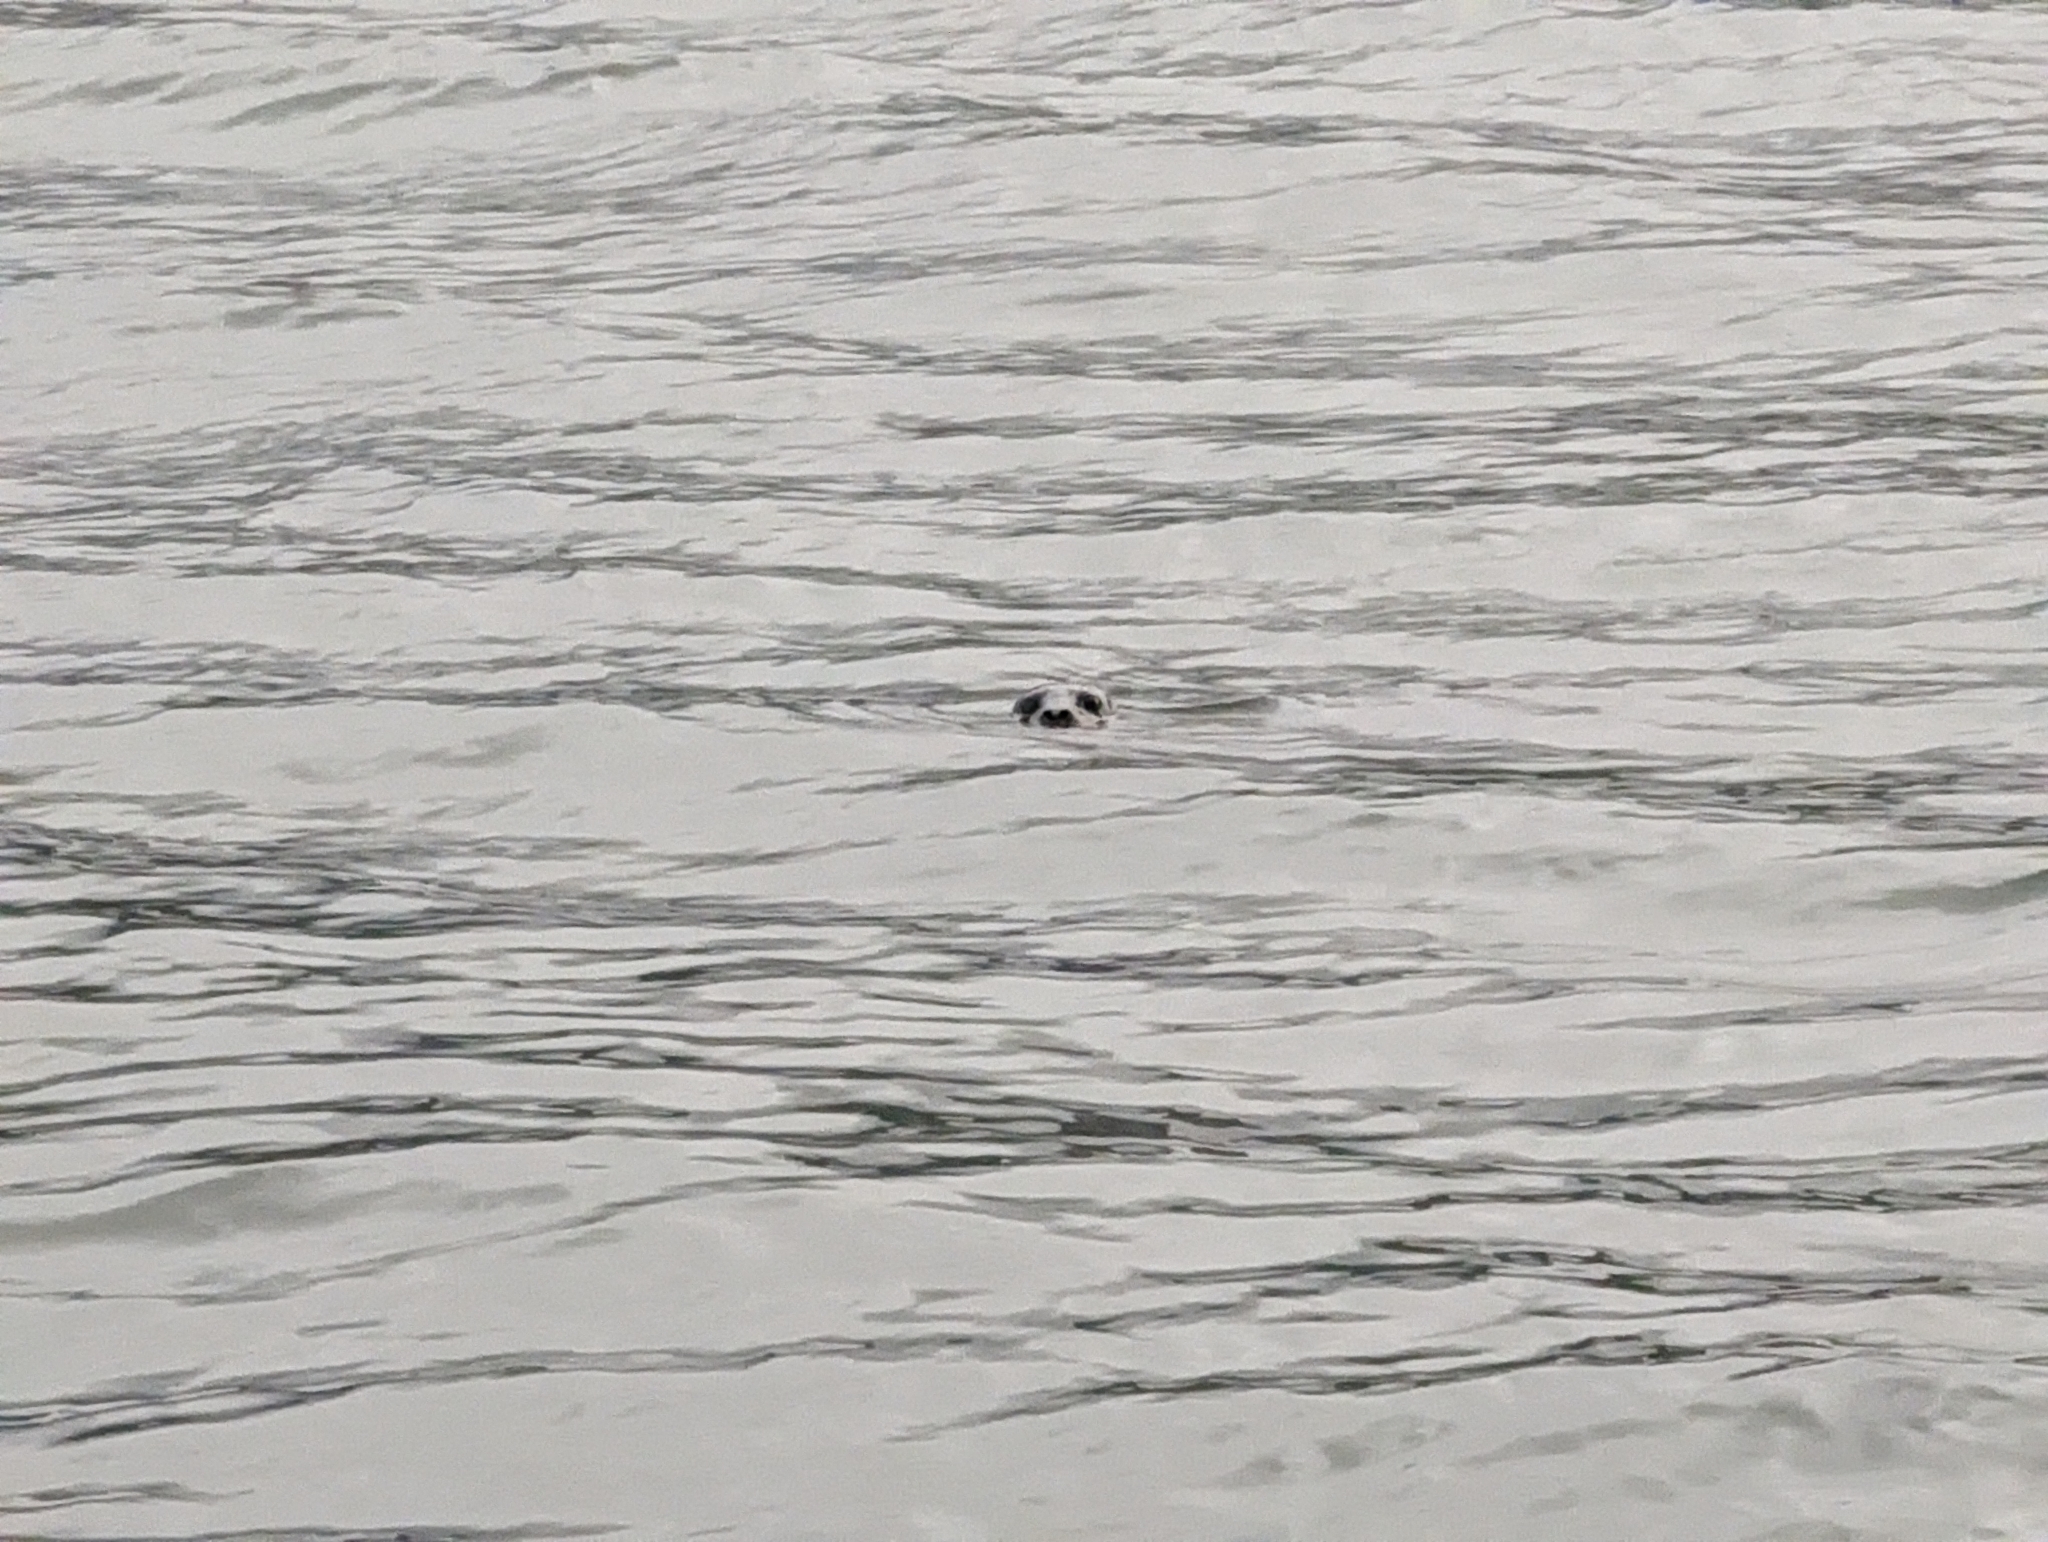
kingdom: Animalia
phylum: Chordata
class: Mammalia
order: Carnivora
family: Phocidae
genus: Phoca
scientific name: Phoca vitulina
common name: Harbor seal
